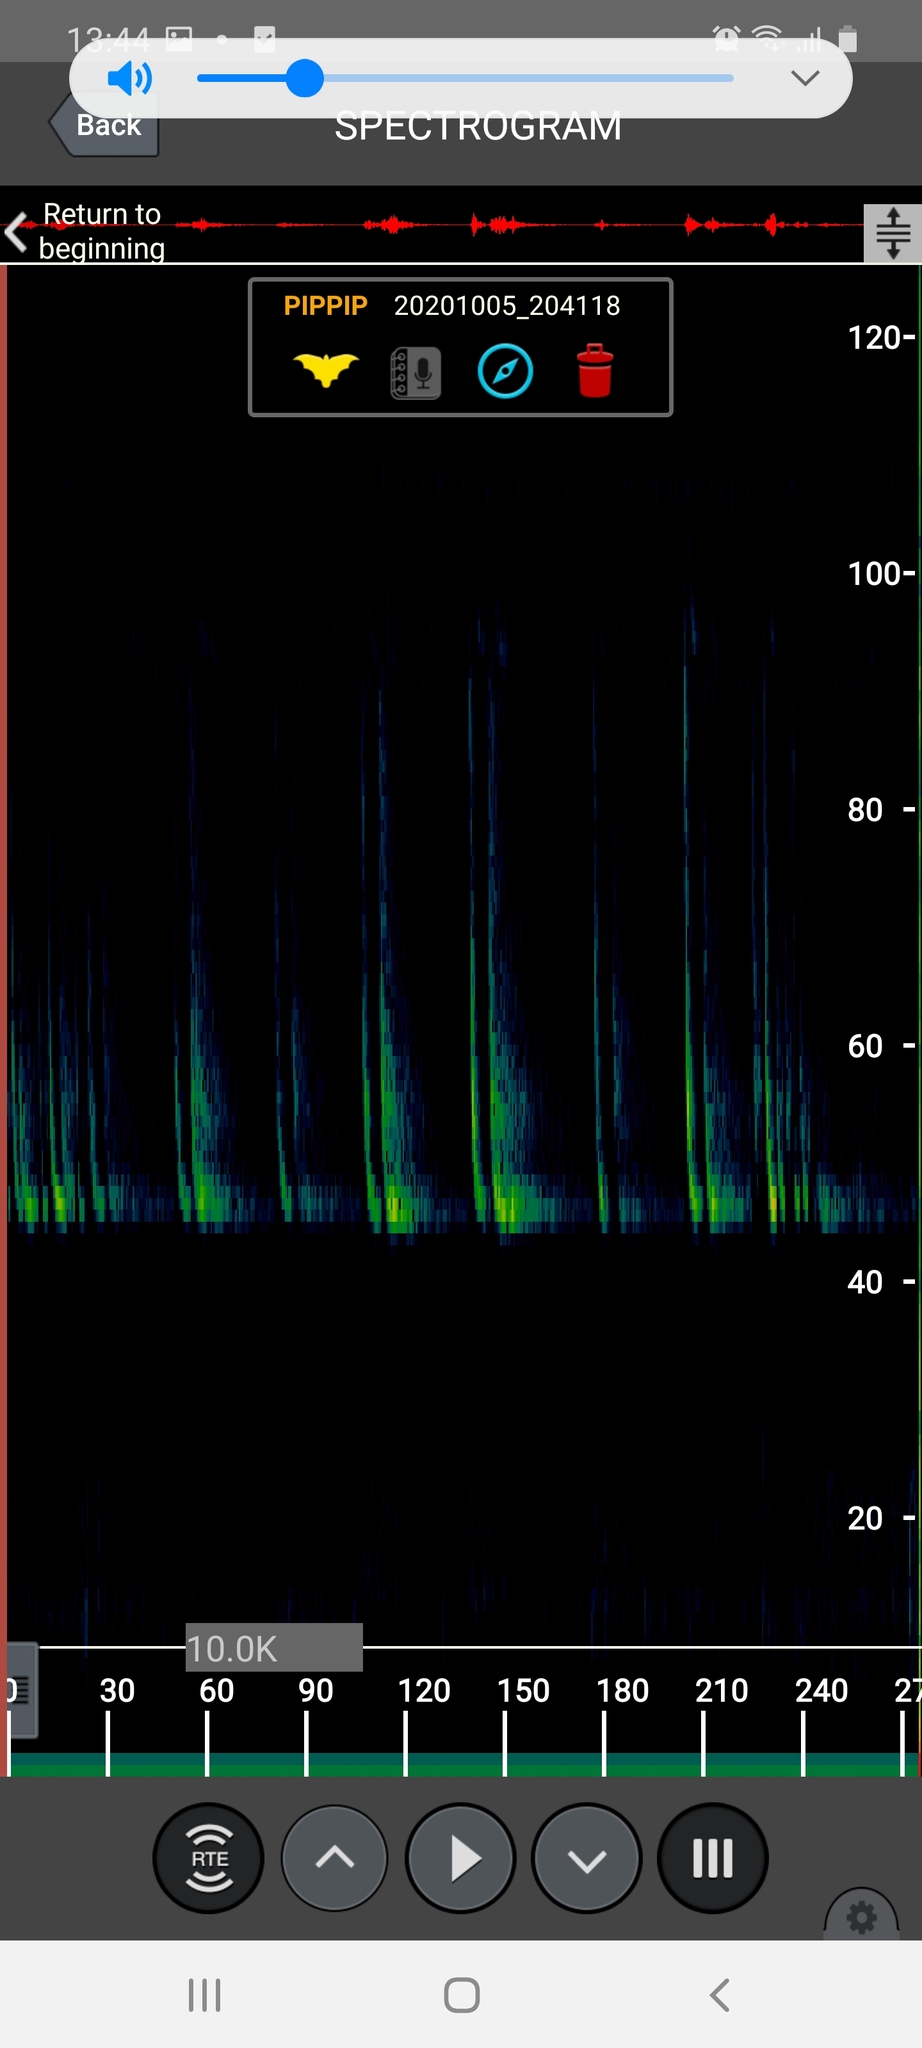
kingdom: Animalia
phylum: Chordata
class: Mammalia
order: Chiroptera
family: Vespertilionidae
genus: Pipistrellus
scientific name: Pipistrellus pipistrellus
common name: Common pipistrelle
